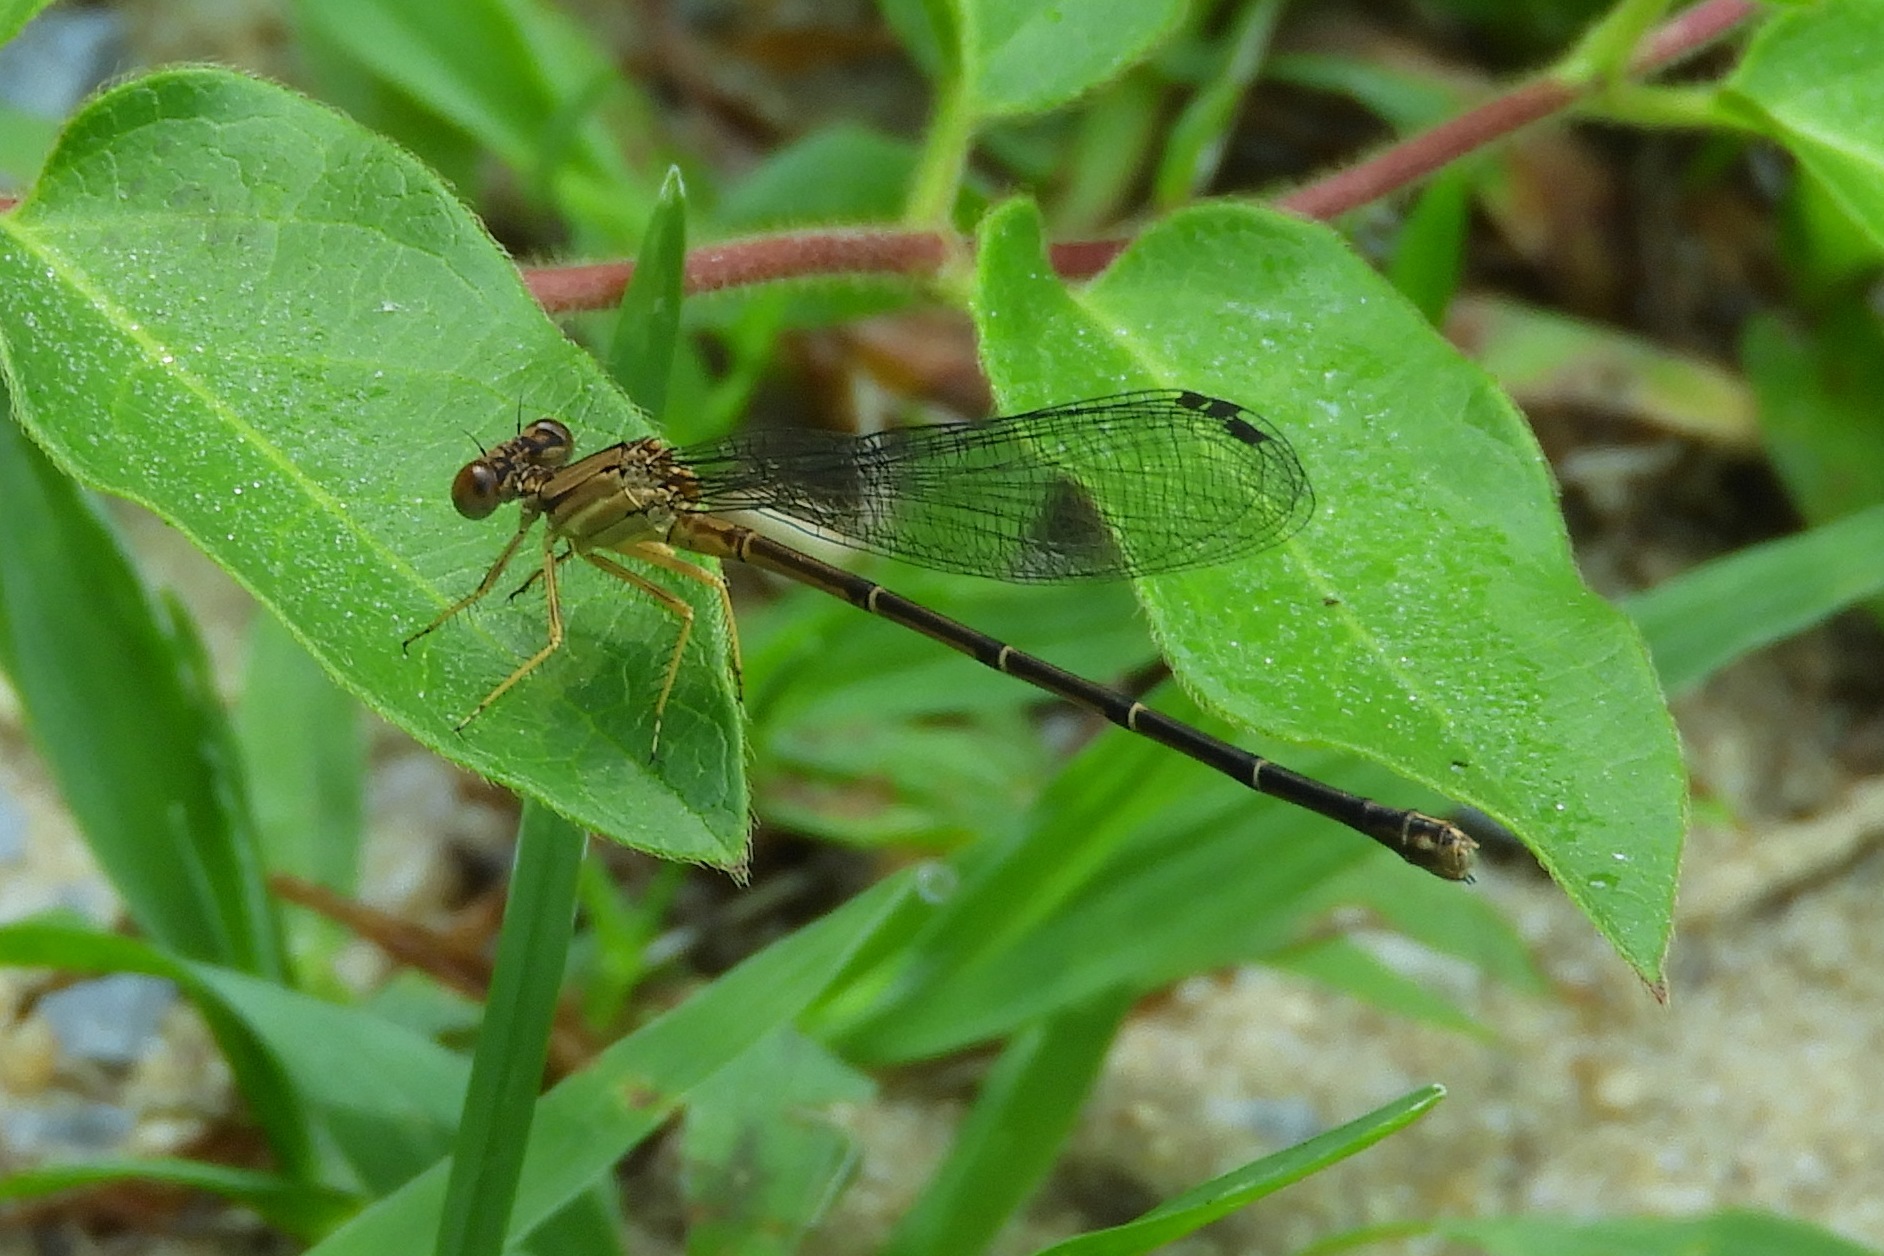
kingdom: Animalia
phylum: Arthropoda
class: Insecta
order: Odonata
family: Coenagrionidae
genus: Argia
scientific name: Argia apicalis
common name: Blue-fronted dancer
